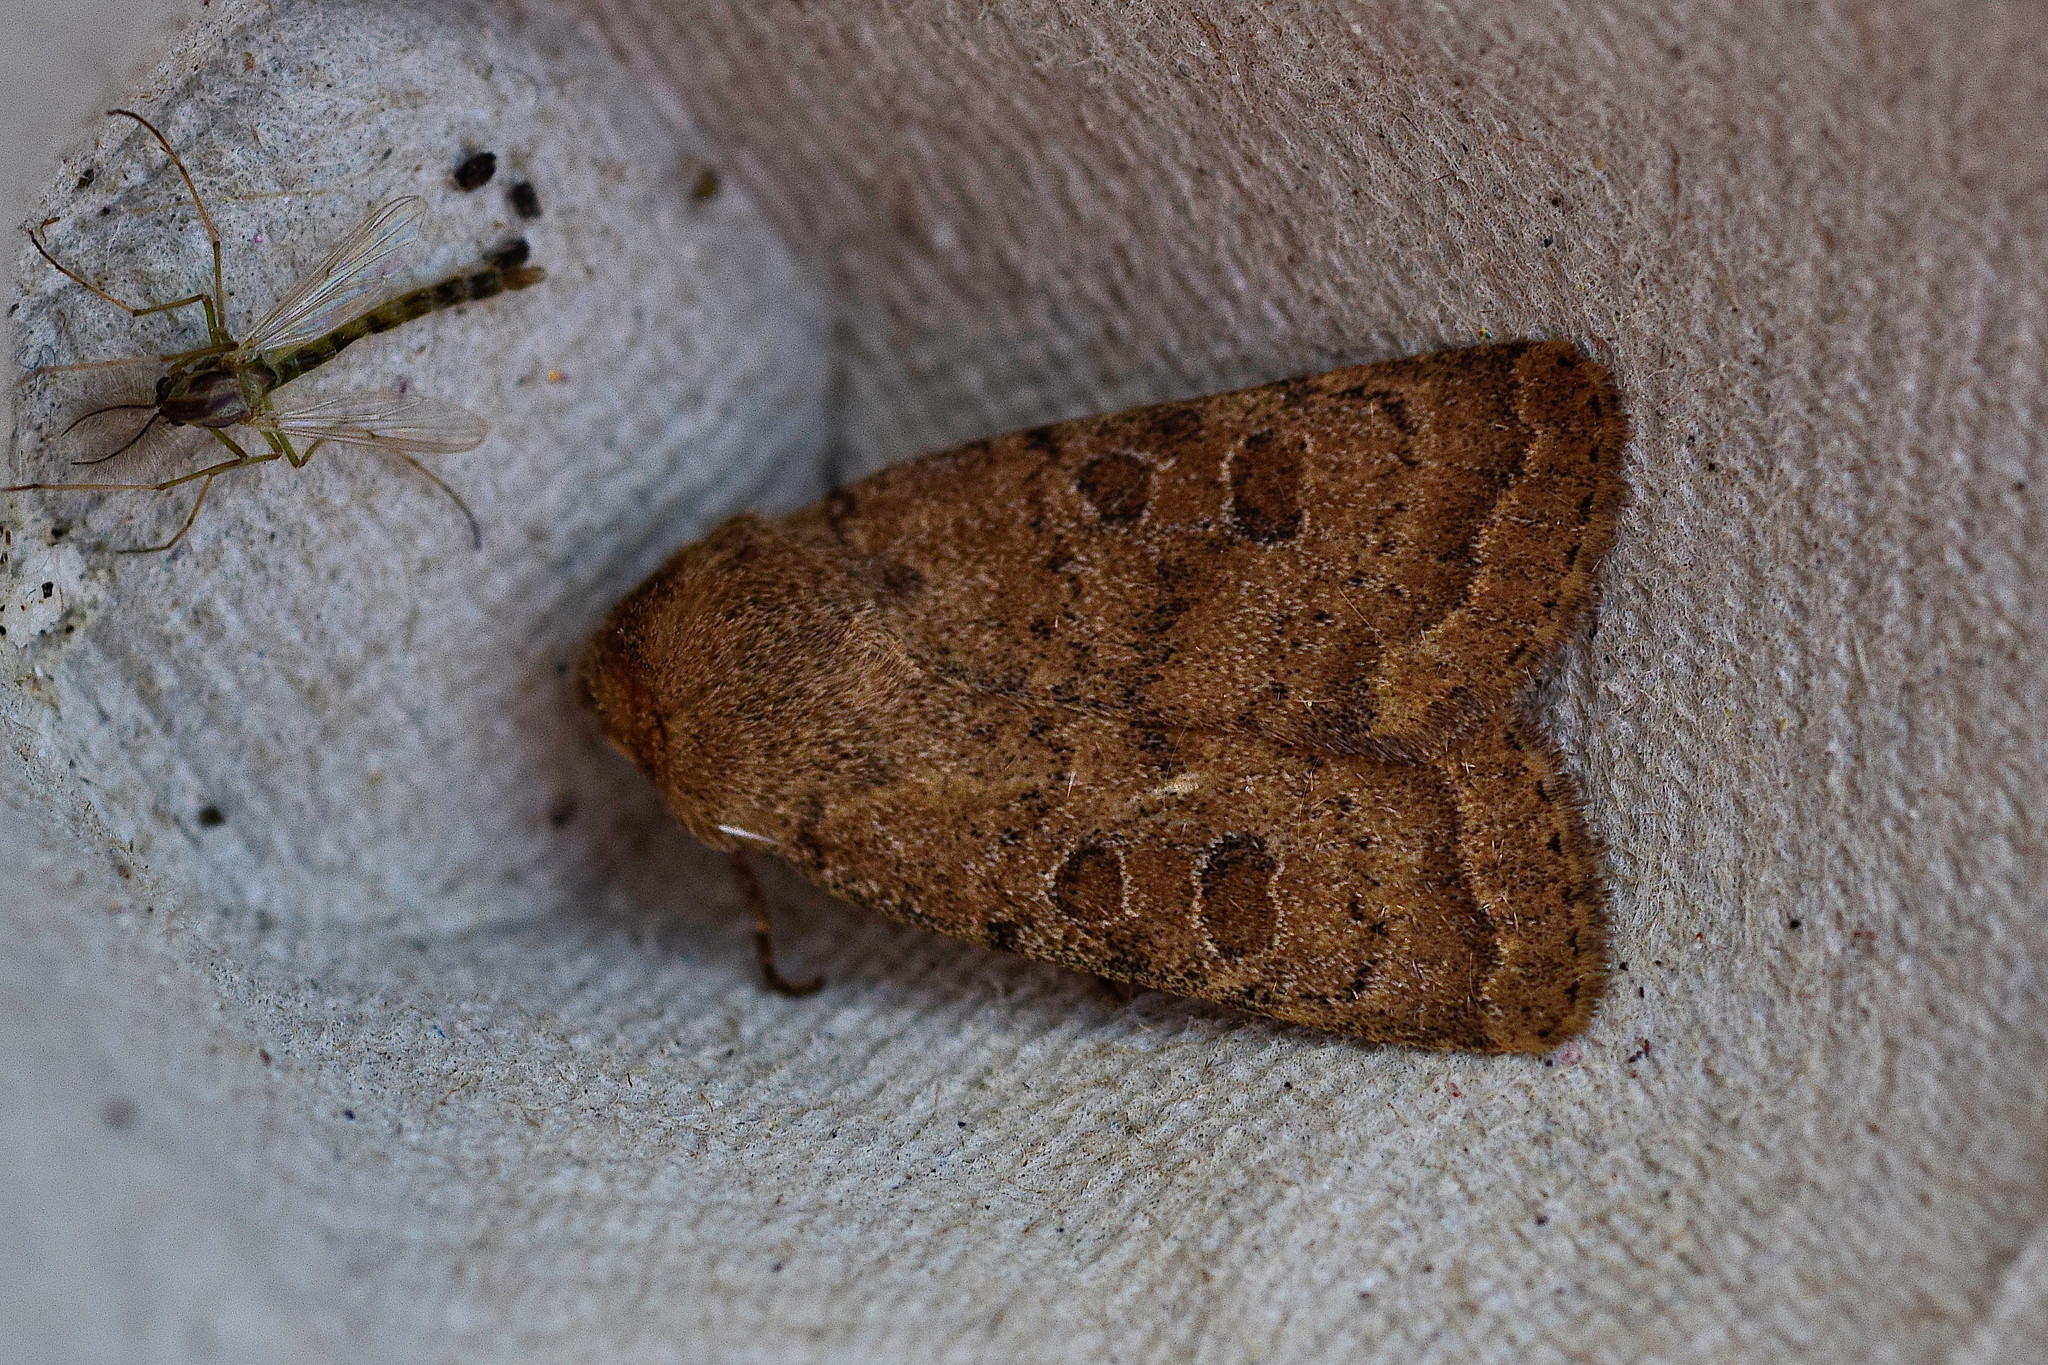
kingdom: Animalia
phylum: Arthropoda
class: Insecta
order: Lepidoptera
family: Noctuidae
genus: Hoplodrina
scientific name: Hoplodrina octogenaria
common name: Uncertain
